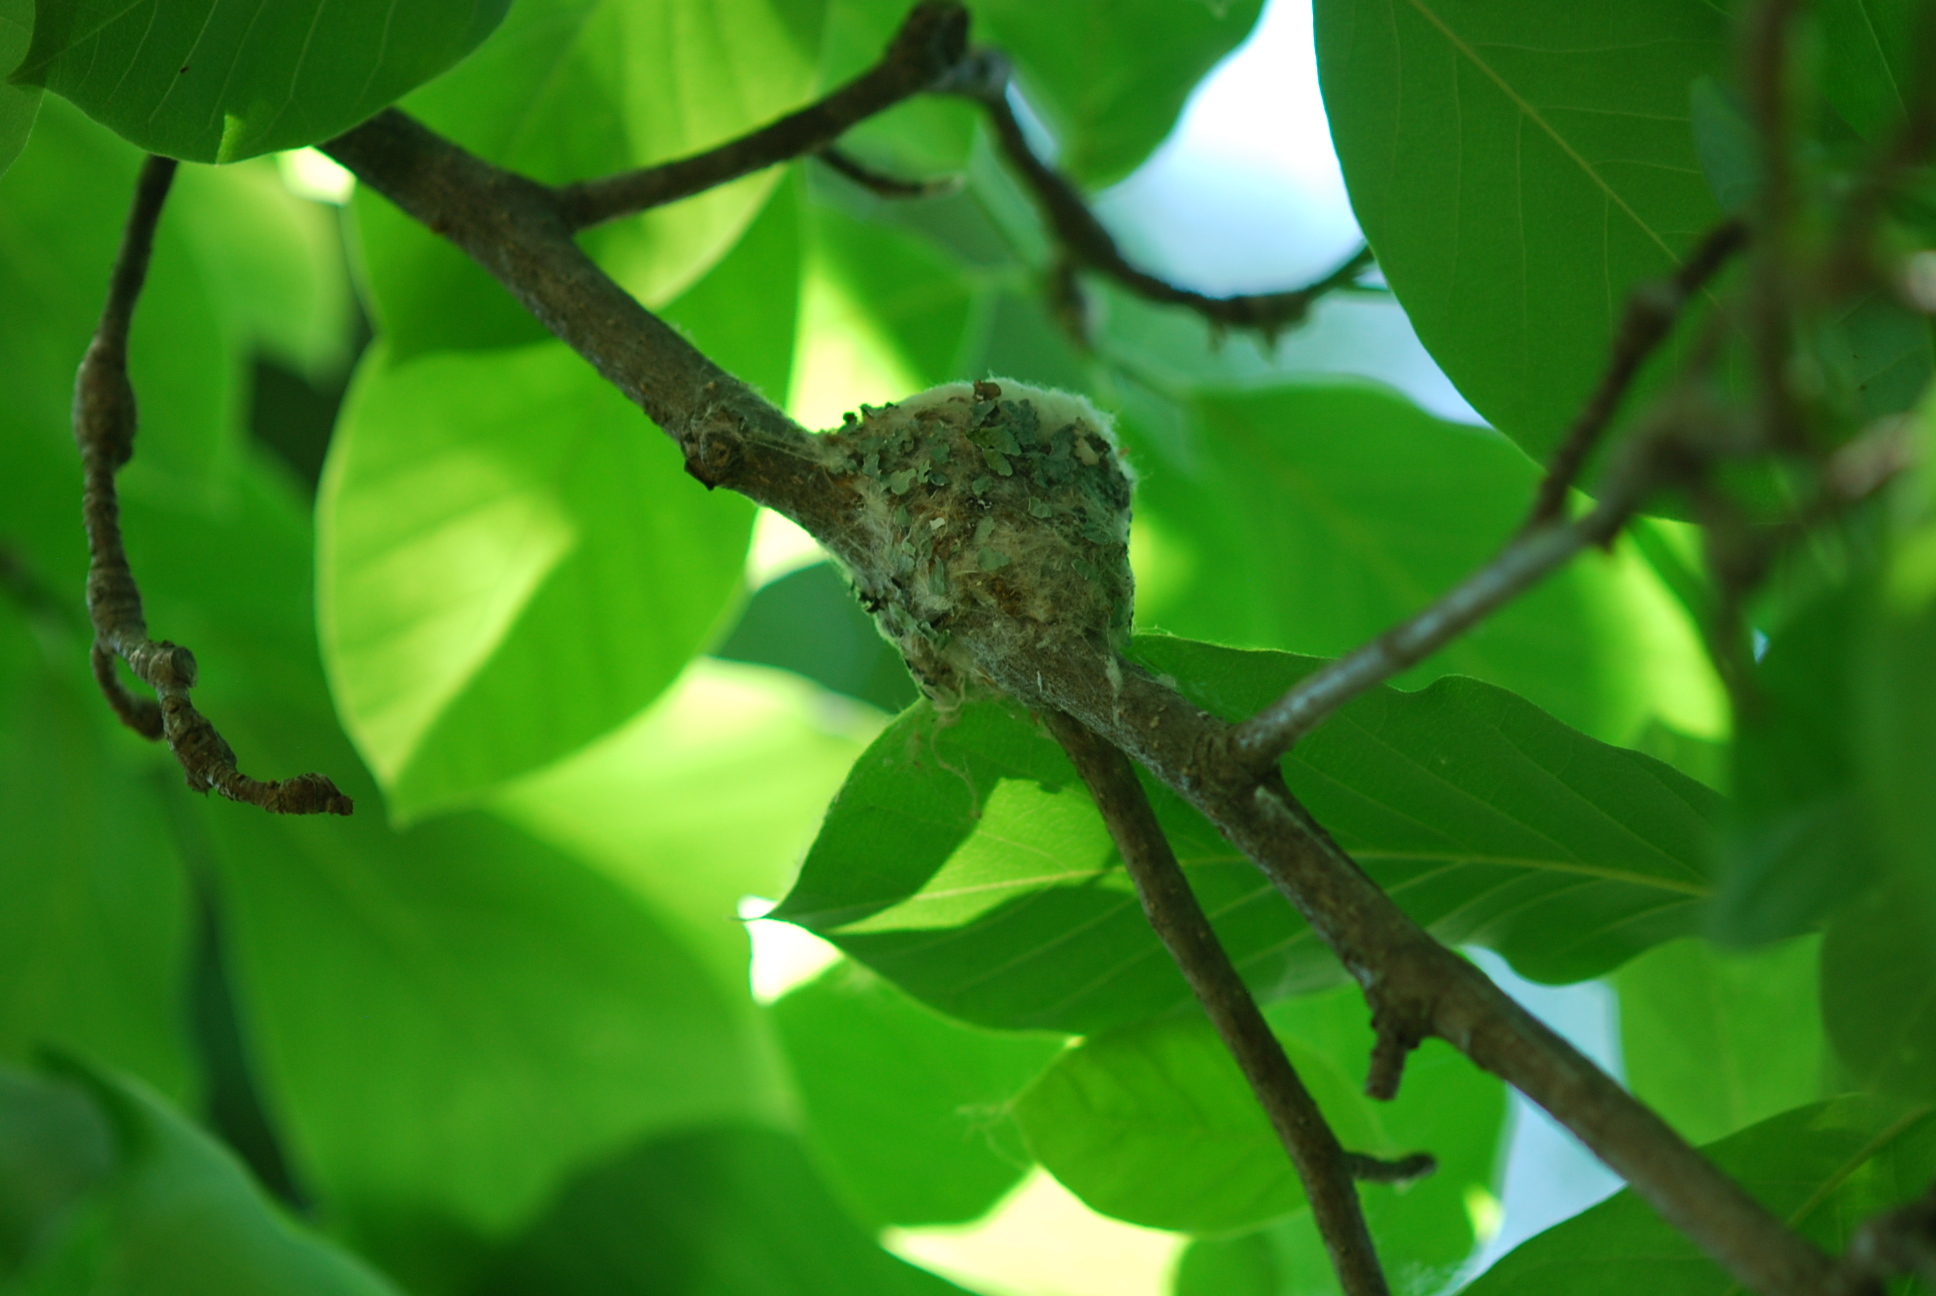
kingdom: Animalia
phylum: Chordata
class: Aves
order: Apodiformes
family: Trochilidae
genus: Archilochus
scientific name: Archilochus colubris
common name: Ruby-throated hummingbird
